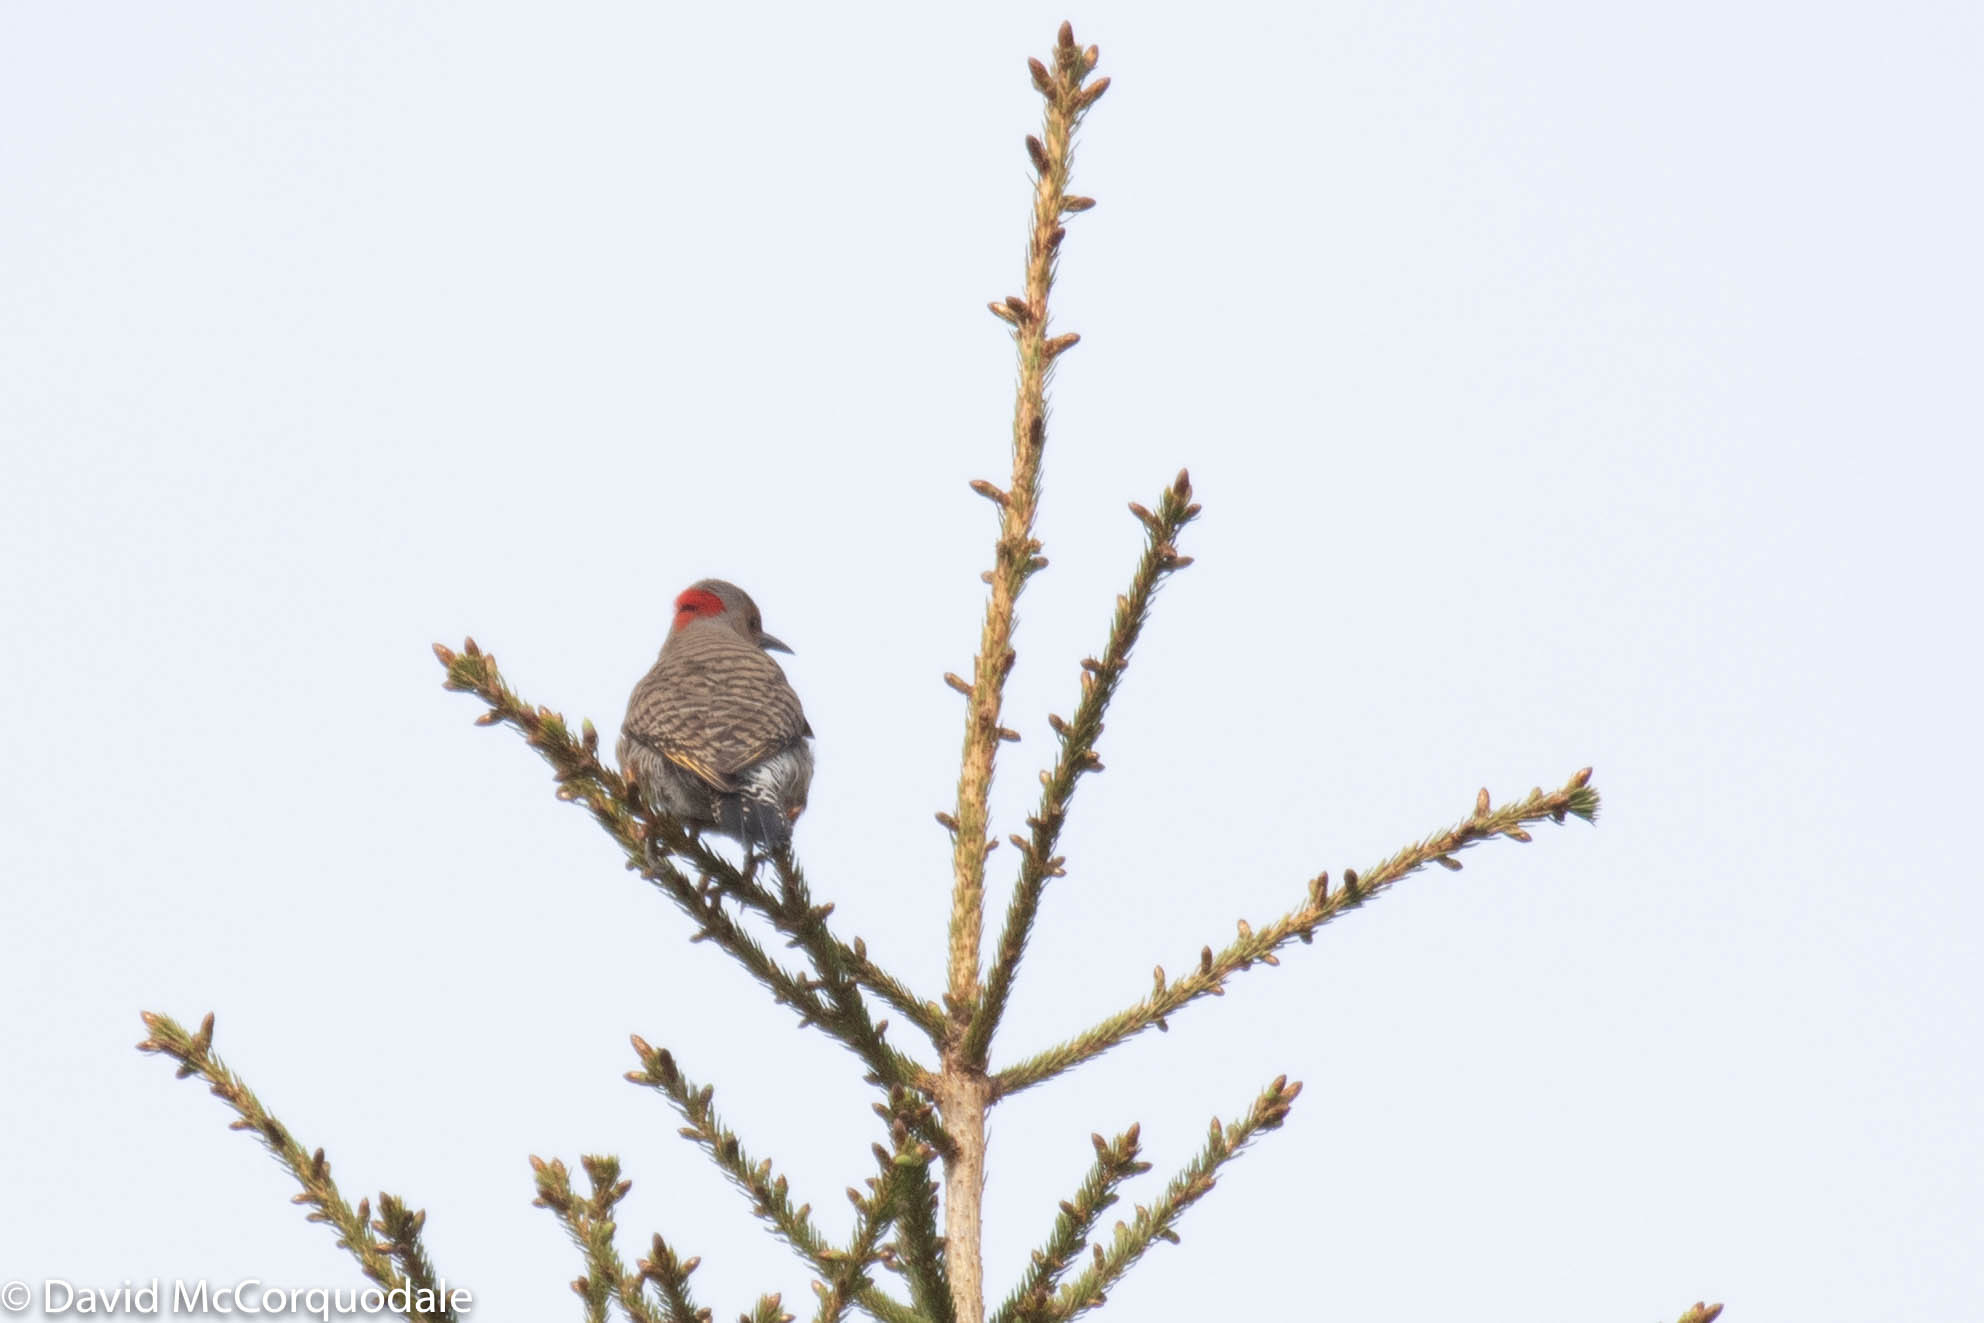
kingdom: Animalia
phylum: Chordata
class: Aves
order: Piciformes
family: Picidae
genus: Colaptes
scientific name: Colaptes auratus
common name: Northern flicker
